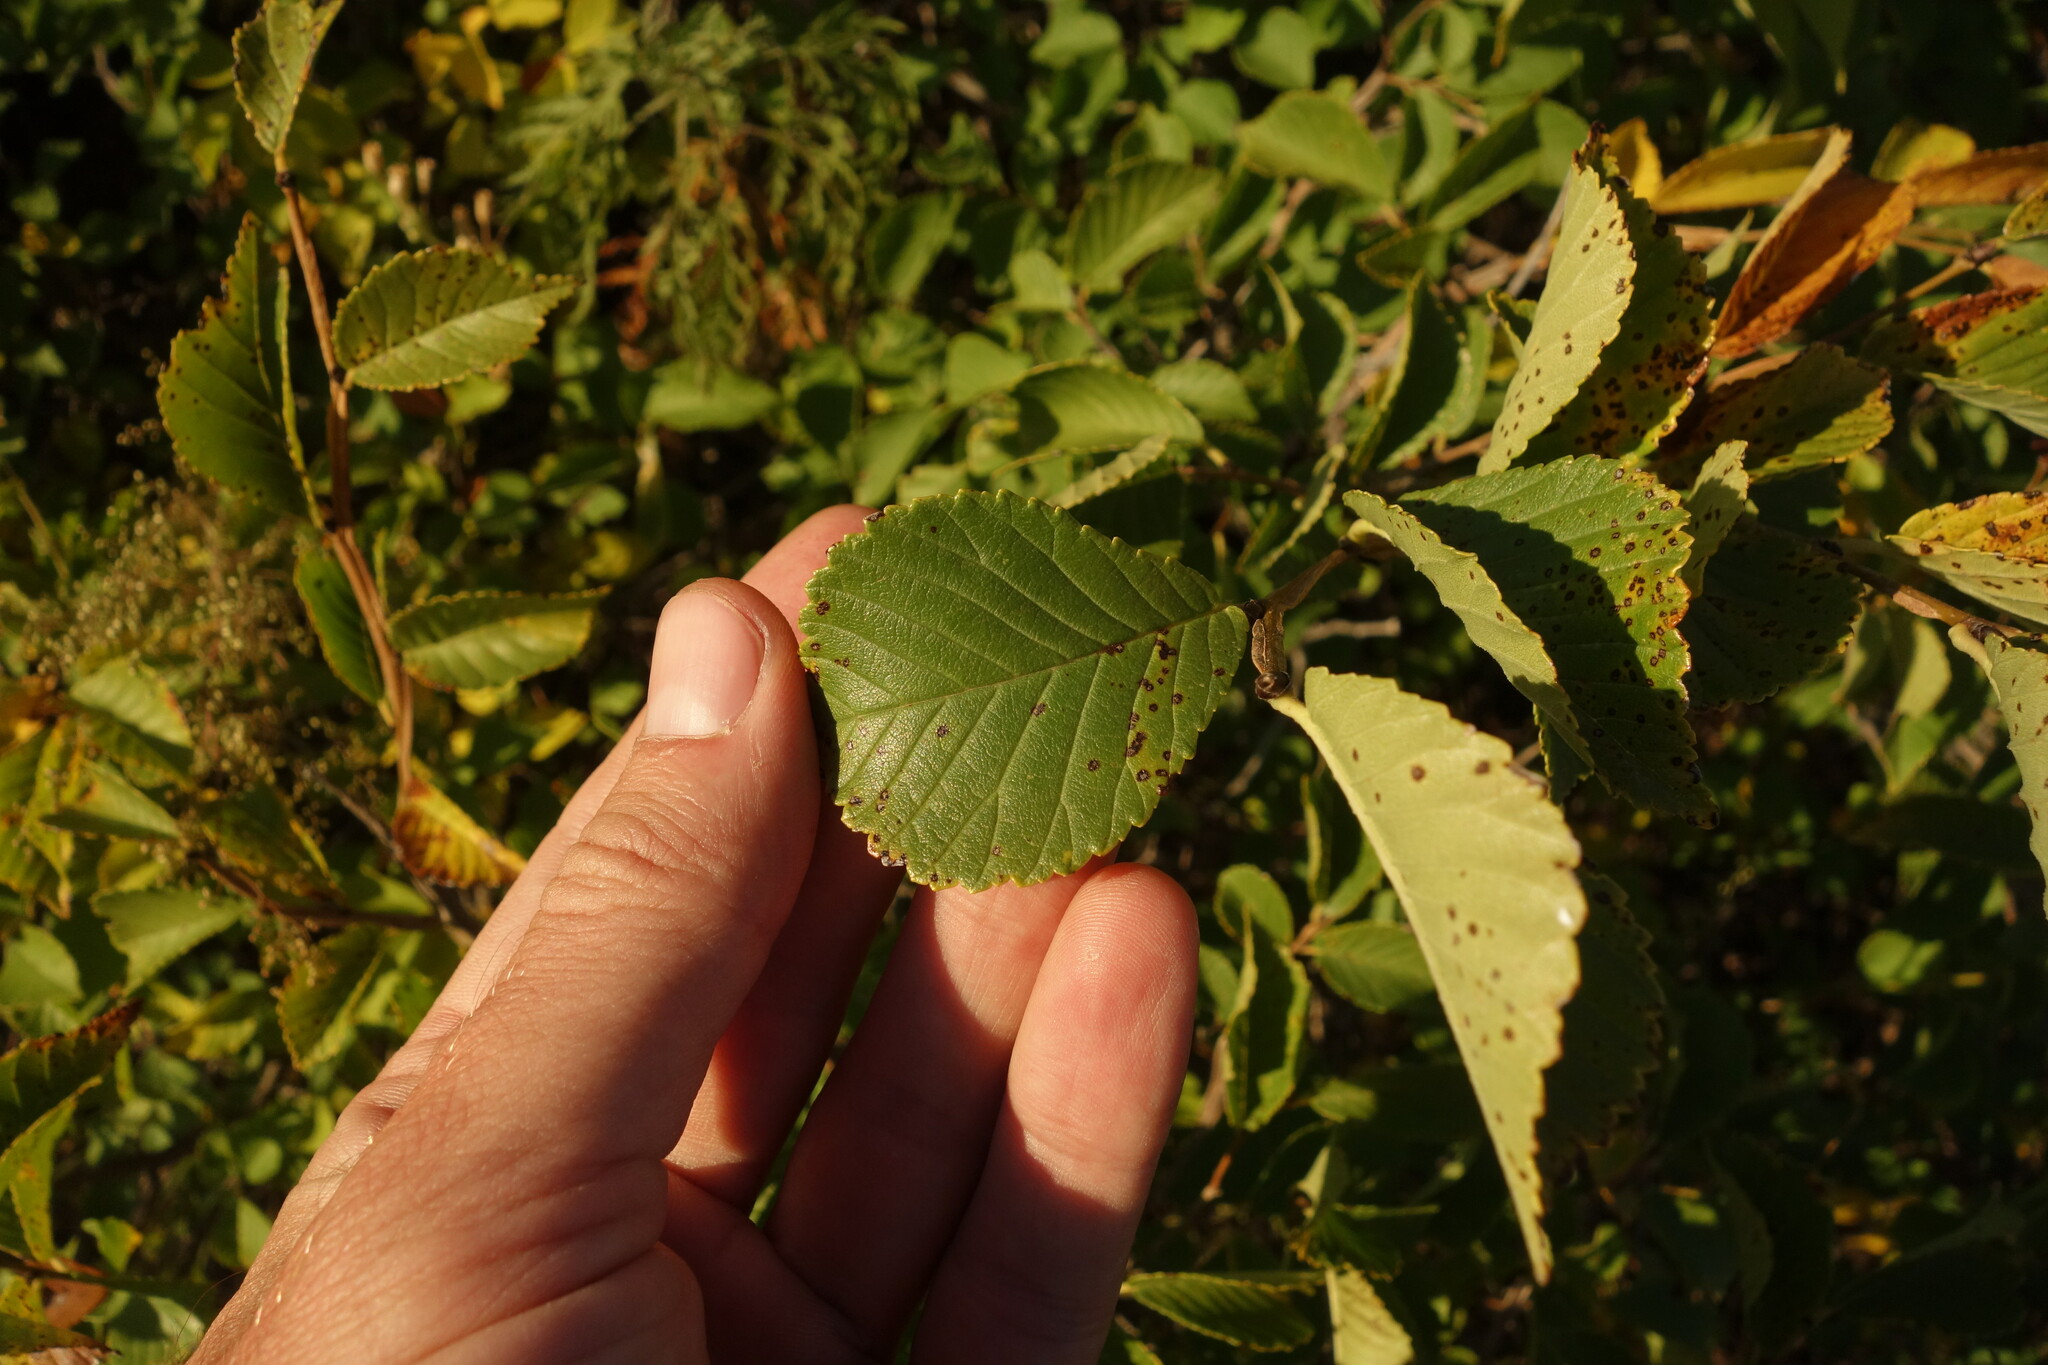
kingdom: Plantae
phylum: Tracheophyta
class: Magnoliopsida
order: Rosales
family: Ulmaceae
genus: Ulmus
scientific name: Ulmus macrocarpa
